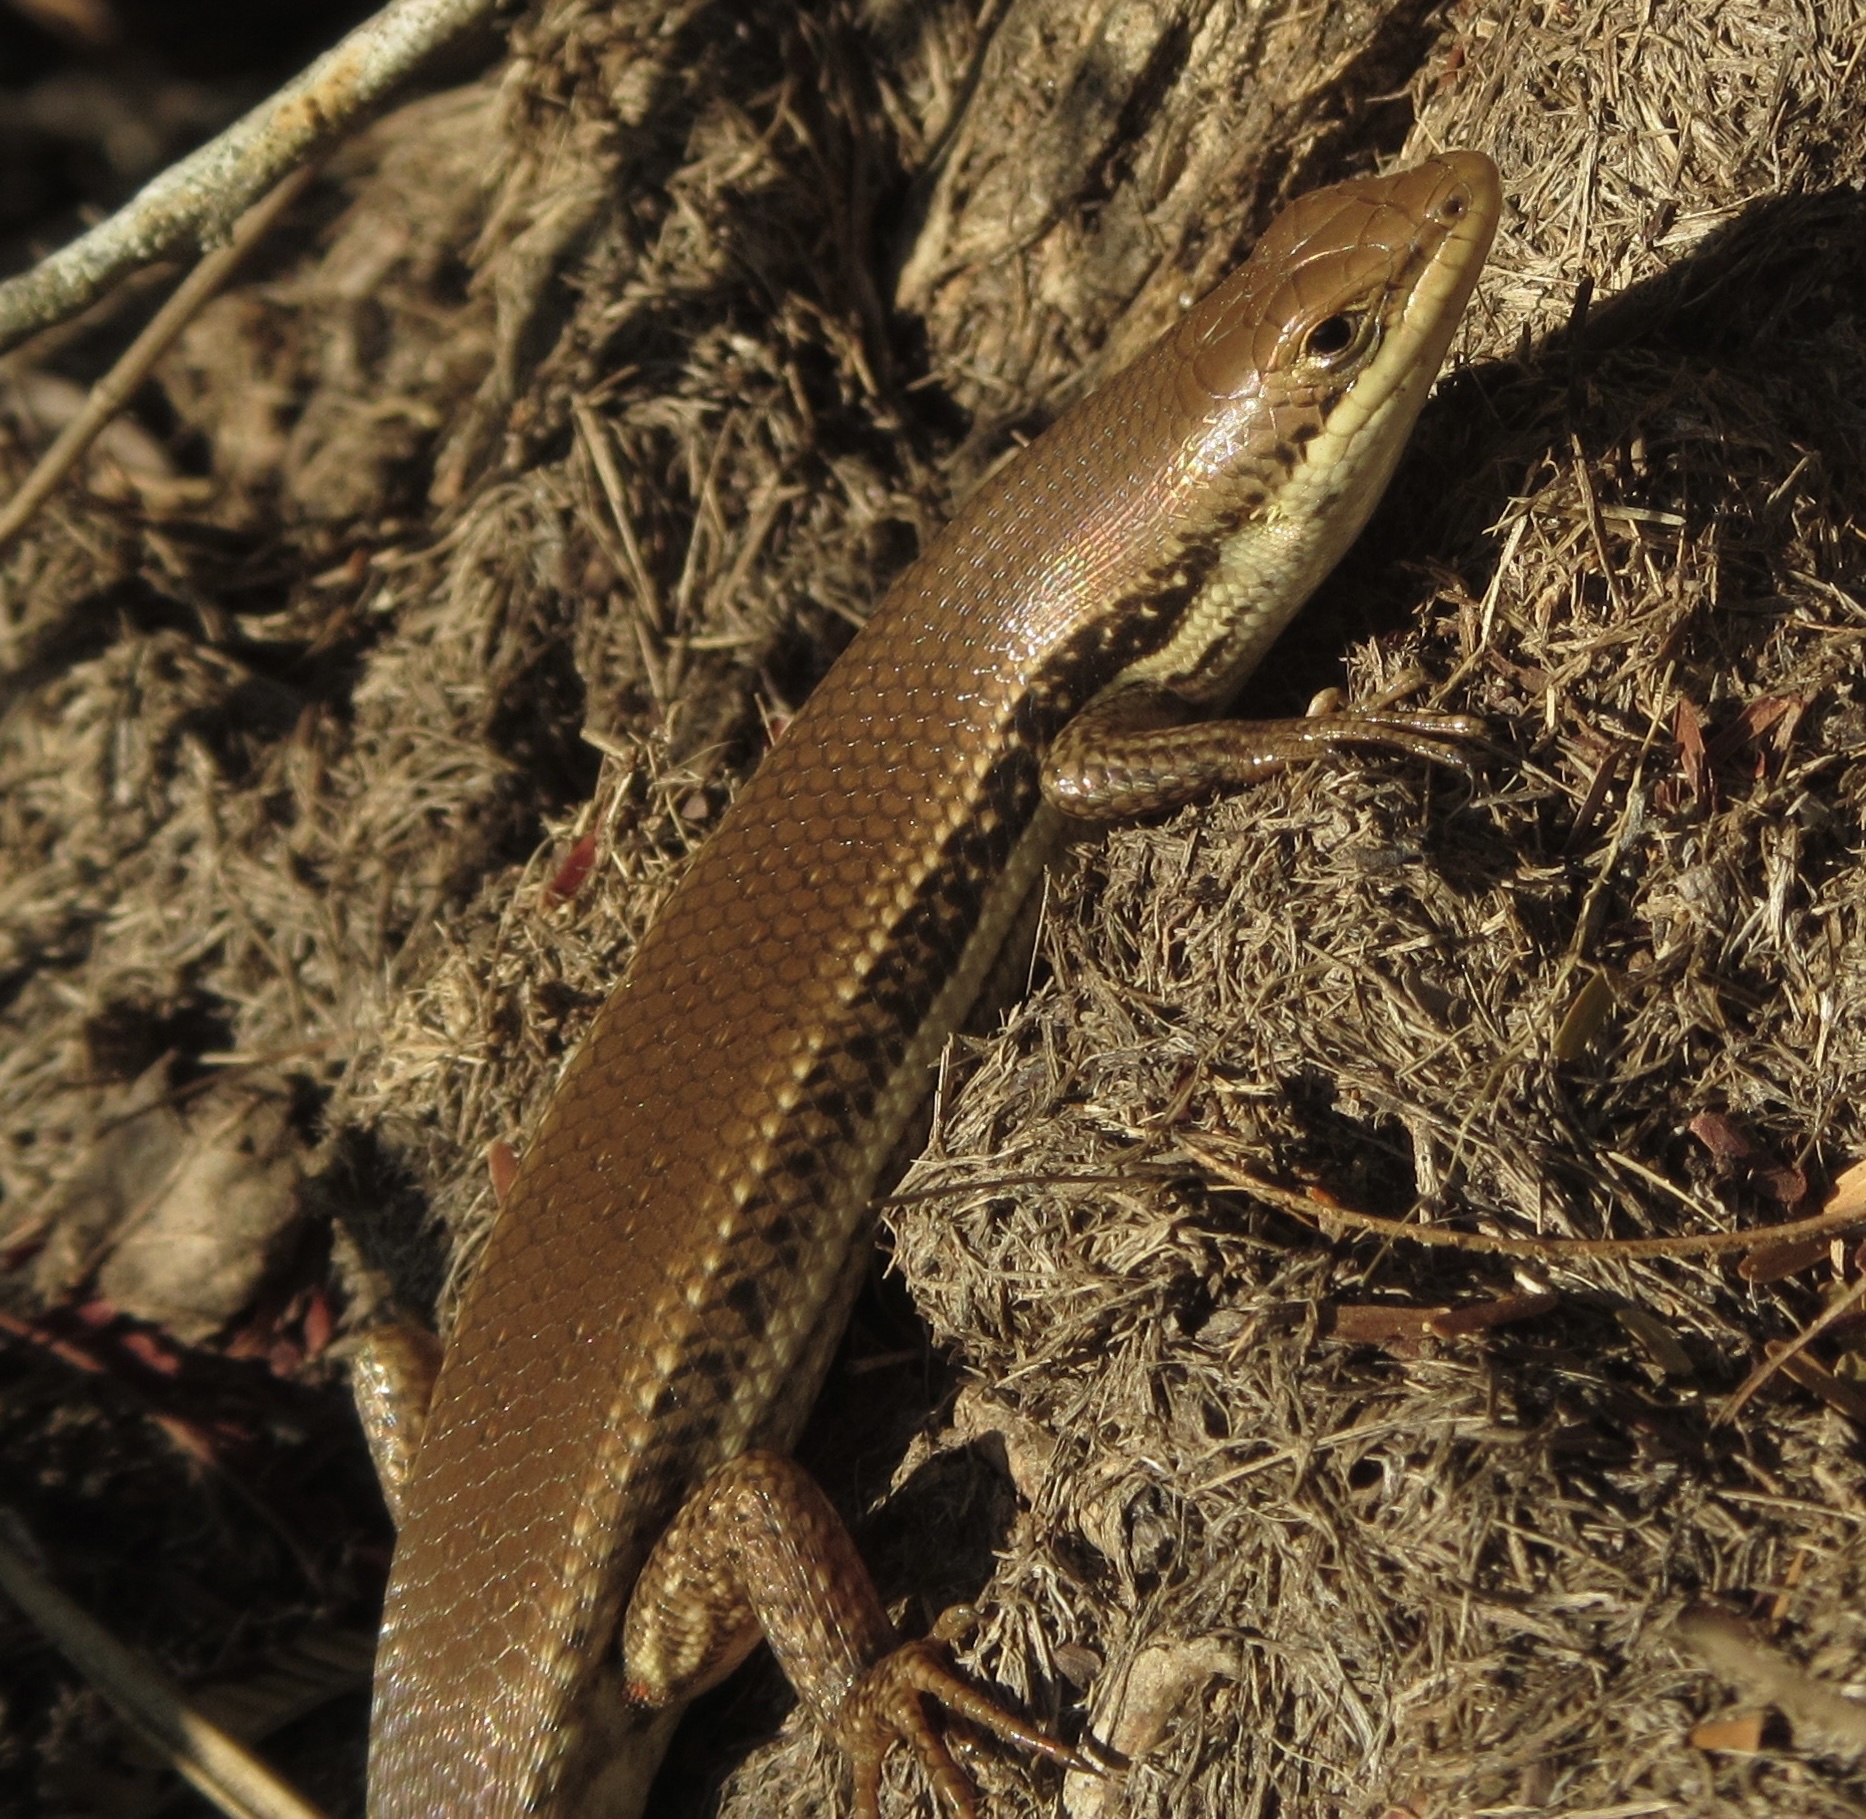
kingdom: Animalia
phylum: Chordata
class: Squamata
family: Scincidae
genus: Trachylepis
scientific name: Trachylepis depressa
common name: Eastern coastal skink
